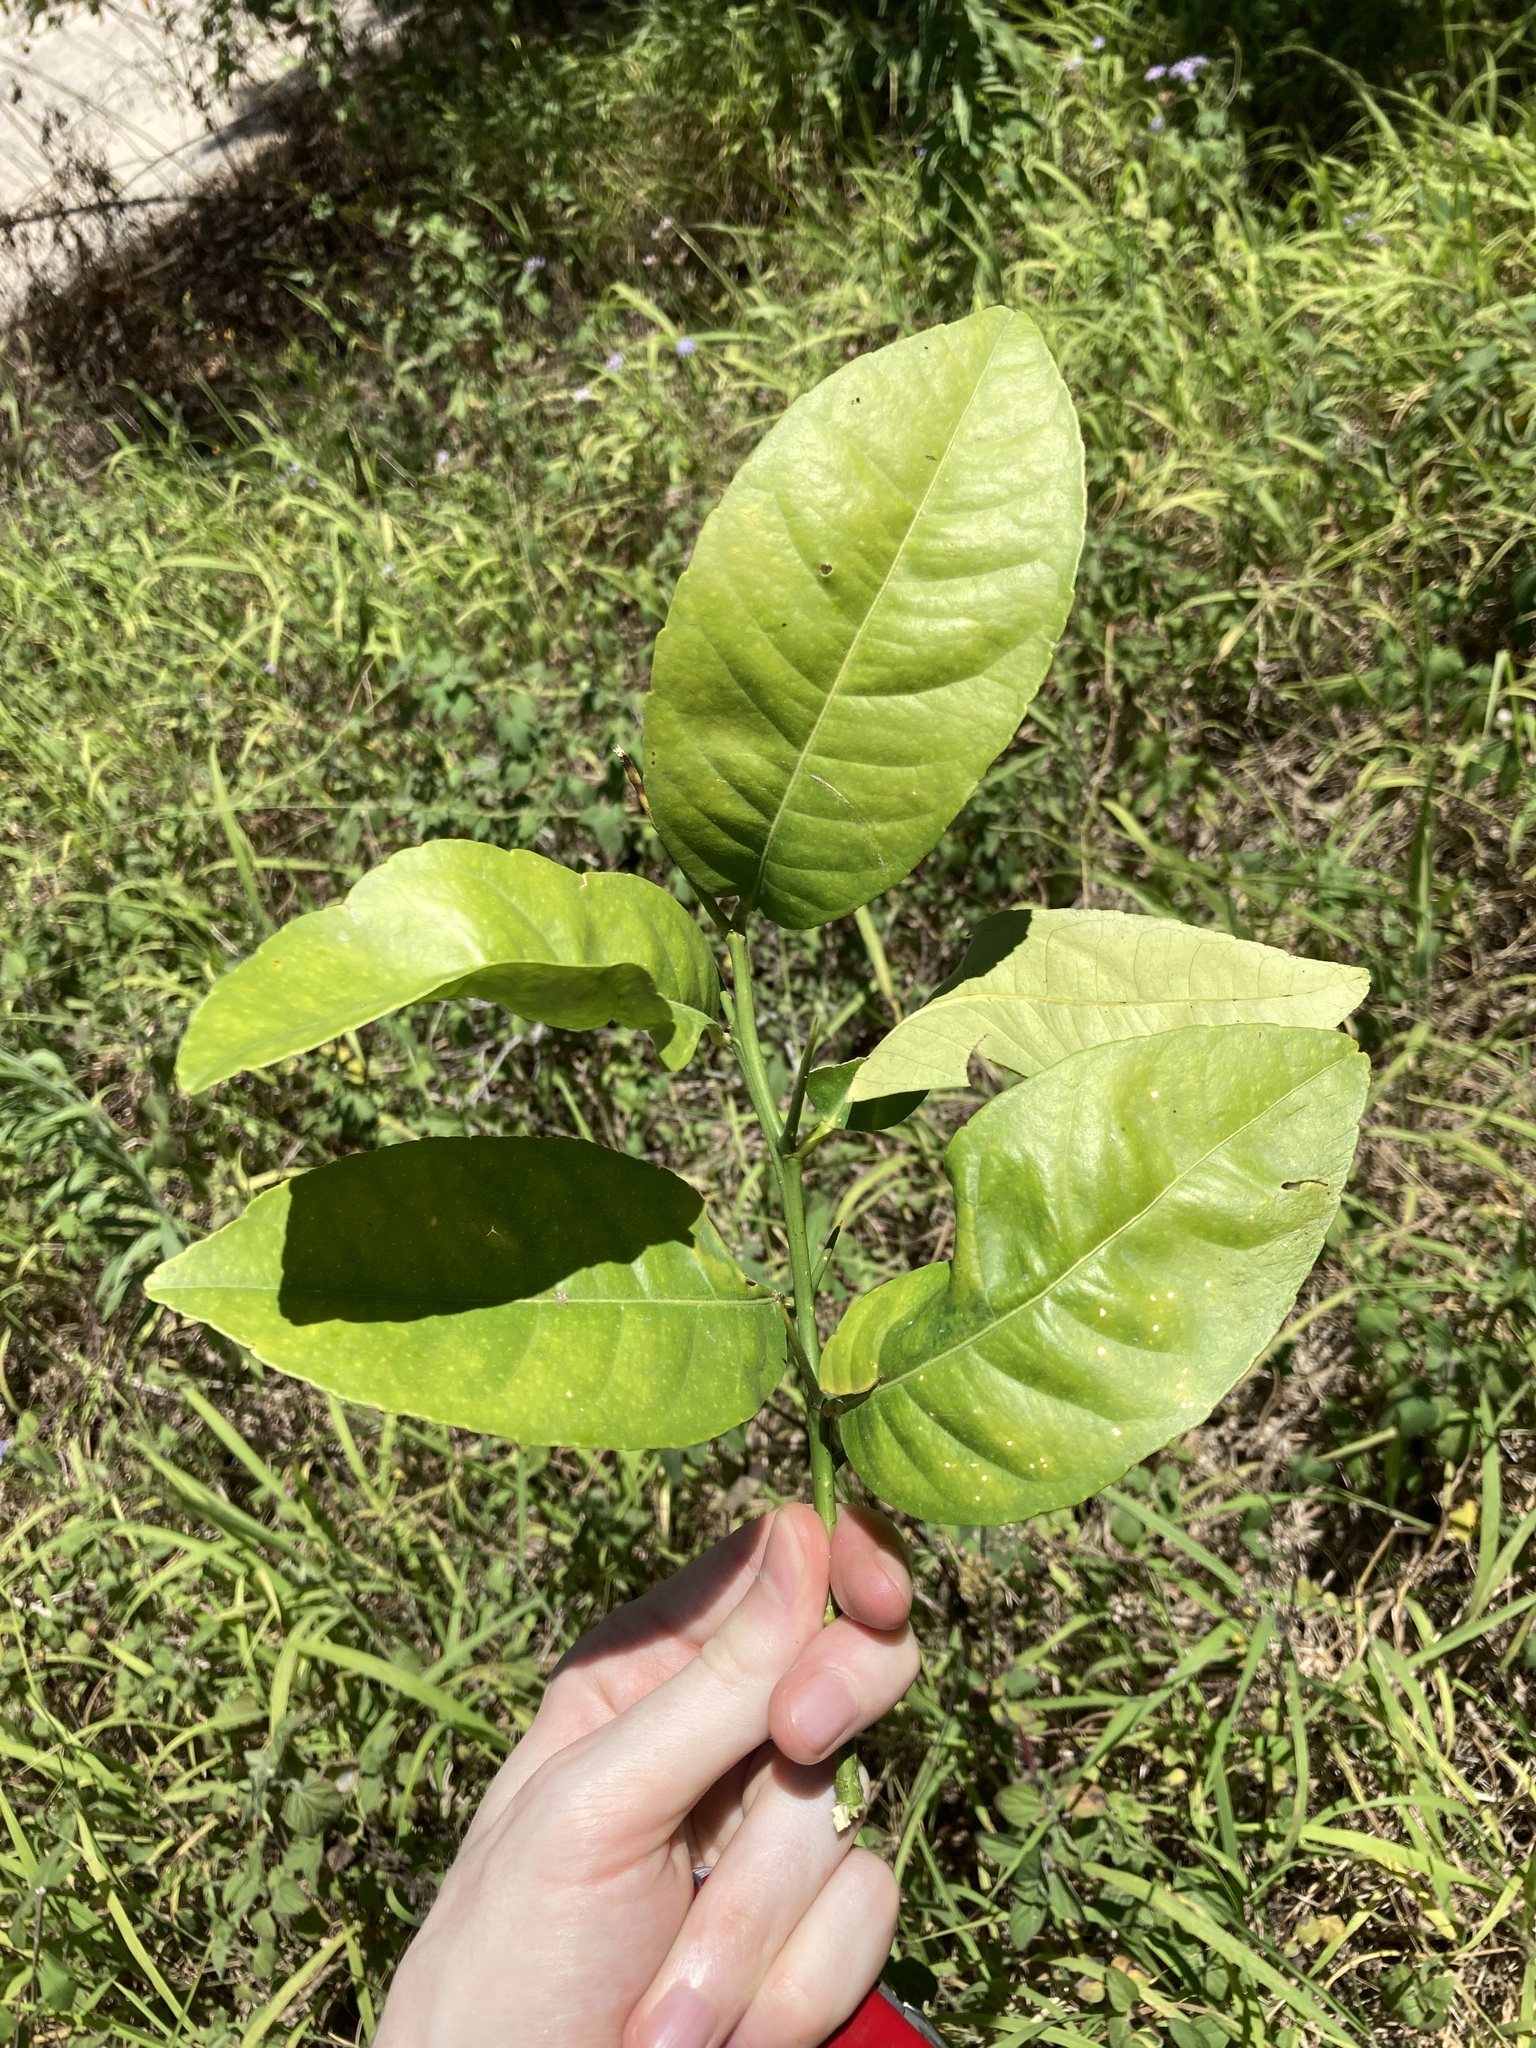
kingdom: Plantae
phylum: Tracheophyta
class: Magnoliopsida
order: Sapindales
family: Rutaceae
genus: Citrus
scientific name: Citrus taitensis
